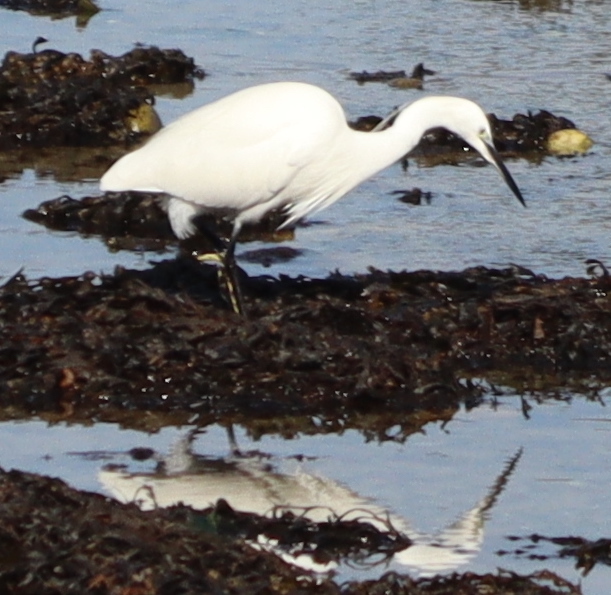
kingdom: Animalia
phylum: Chordata
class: Aves
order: Pelecaniformes
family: Ardeidae
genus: Egretta
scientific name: Egretta garzetta
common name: Little egret
